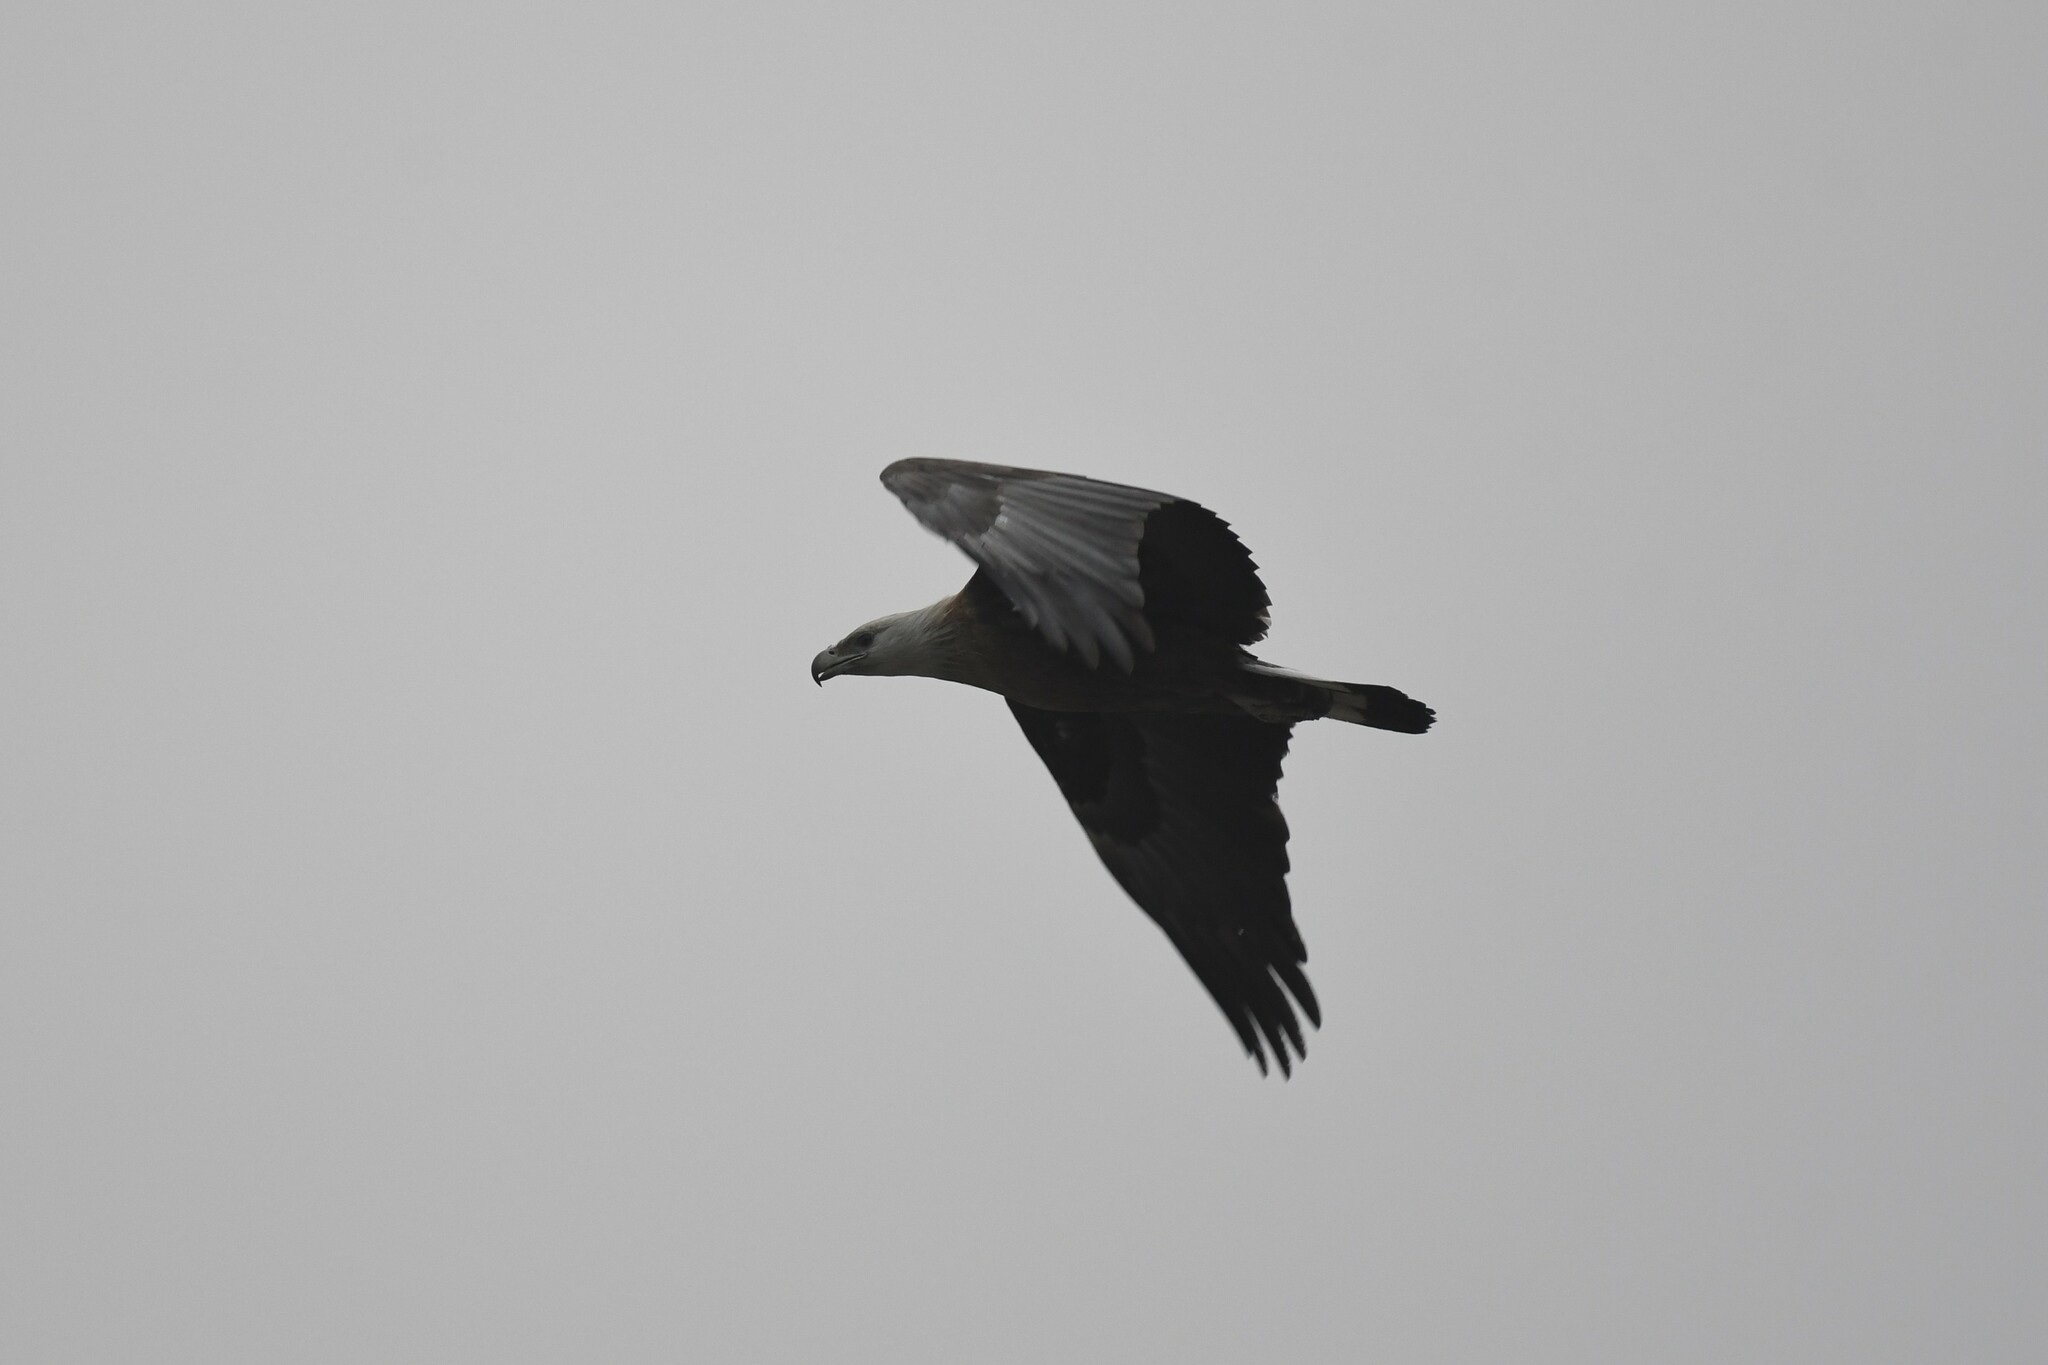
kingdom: Animalia
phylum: Chordata
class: Aves
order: Accipitriformes
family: Accipitridae
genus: Haliaeetus
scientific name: Haliaeetus leucoryphus
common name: Pallas's fish eagle
